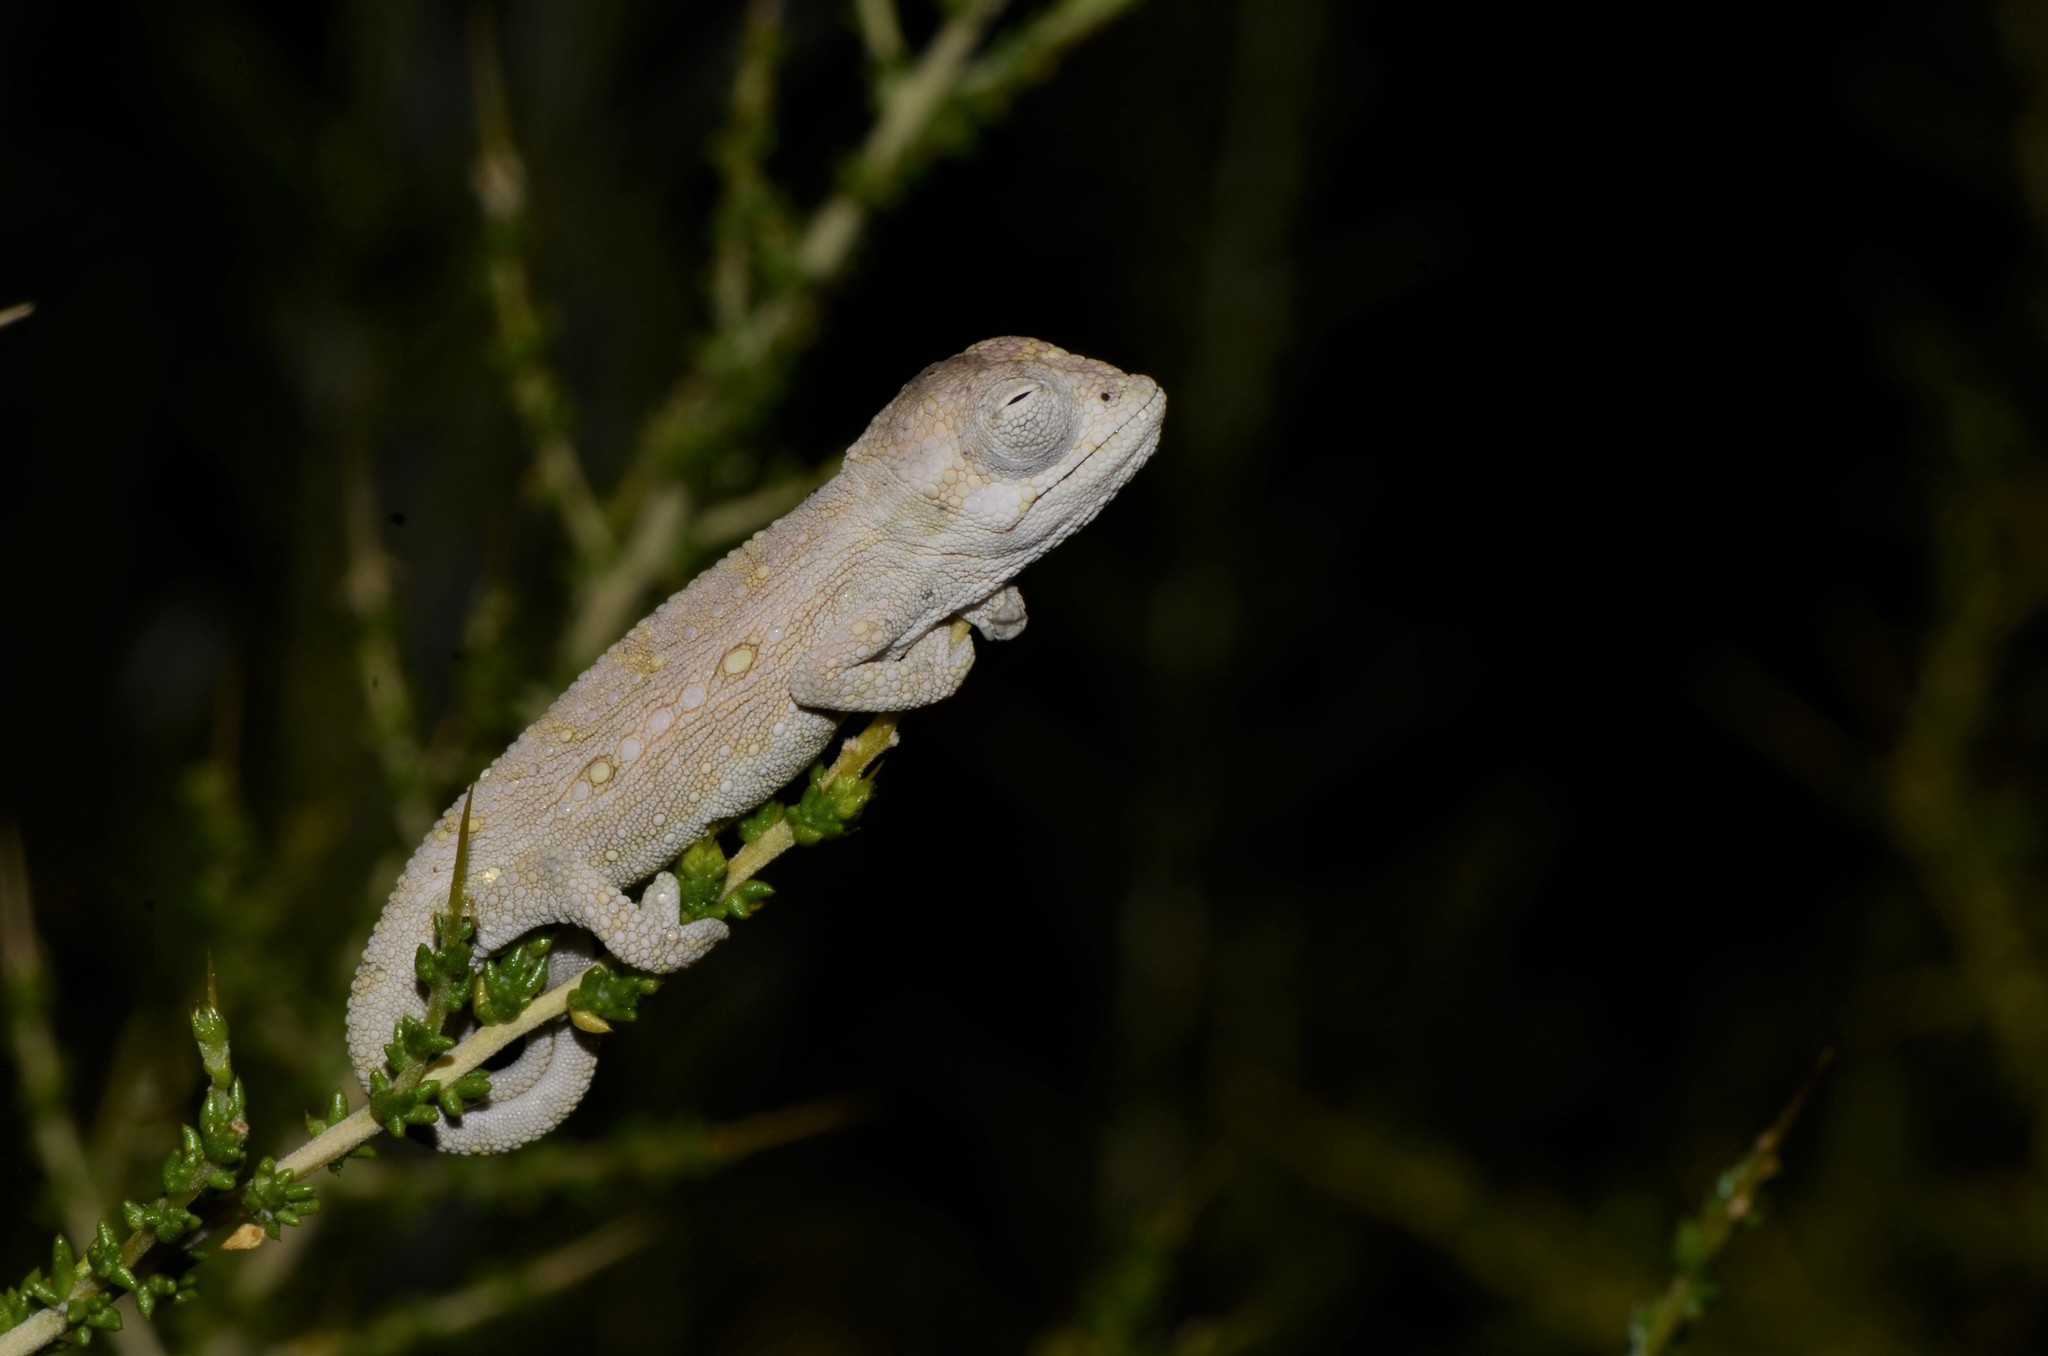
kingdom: Animalia
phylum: Chordata
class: Squamata
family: Chamaeleonidae
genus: Bradypodion
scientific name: Bradypodion pumilum
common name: Cape dwarf chameleon
